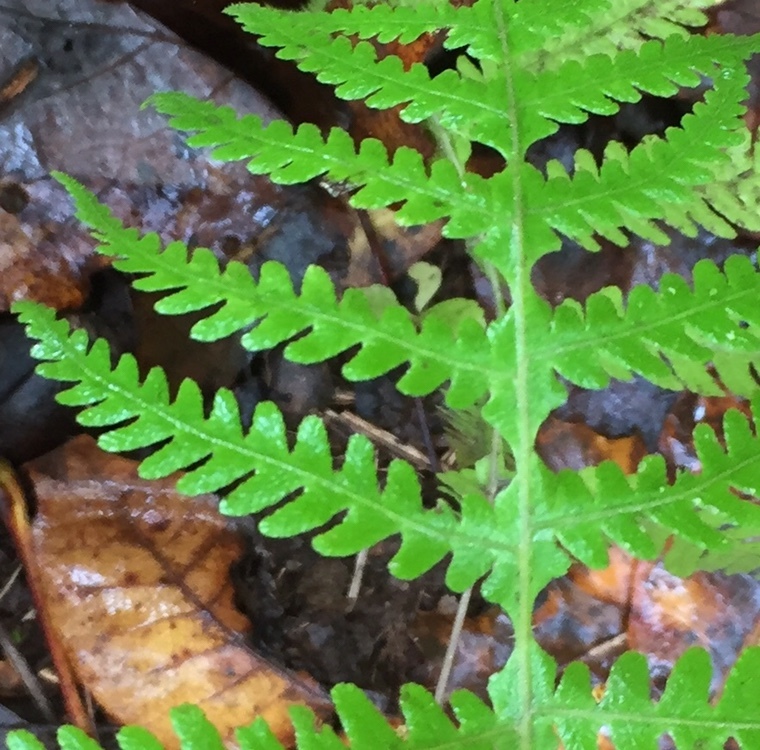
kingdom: Plantae
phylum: Tracheophyta
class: Polypodiopsida
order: Polypodiales
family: Thelypteridaceae
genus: Phegopteris
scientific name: Phegopteris hexagonoptera
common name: Broad beech fern
